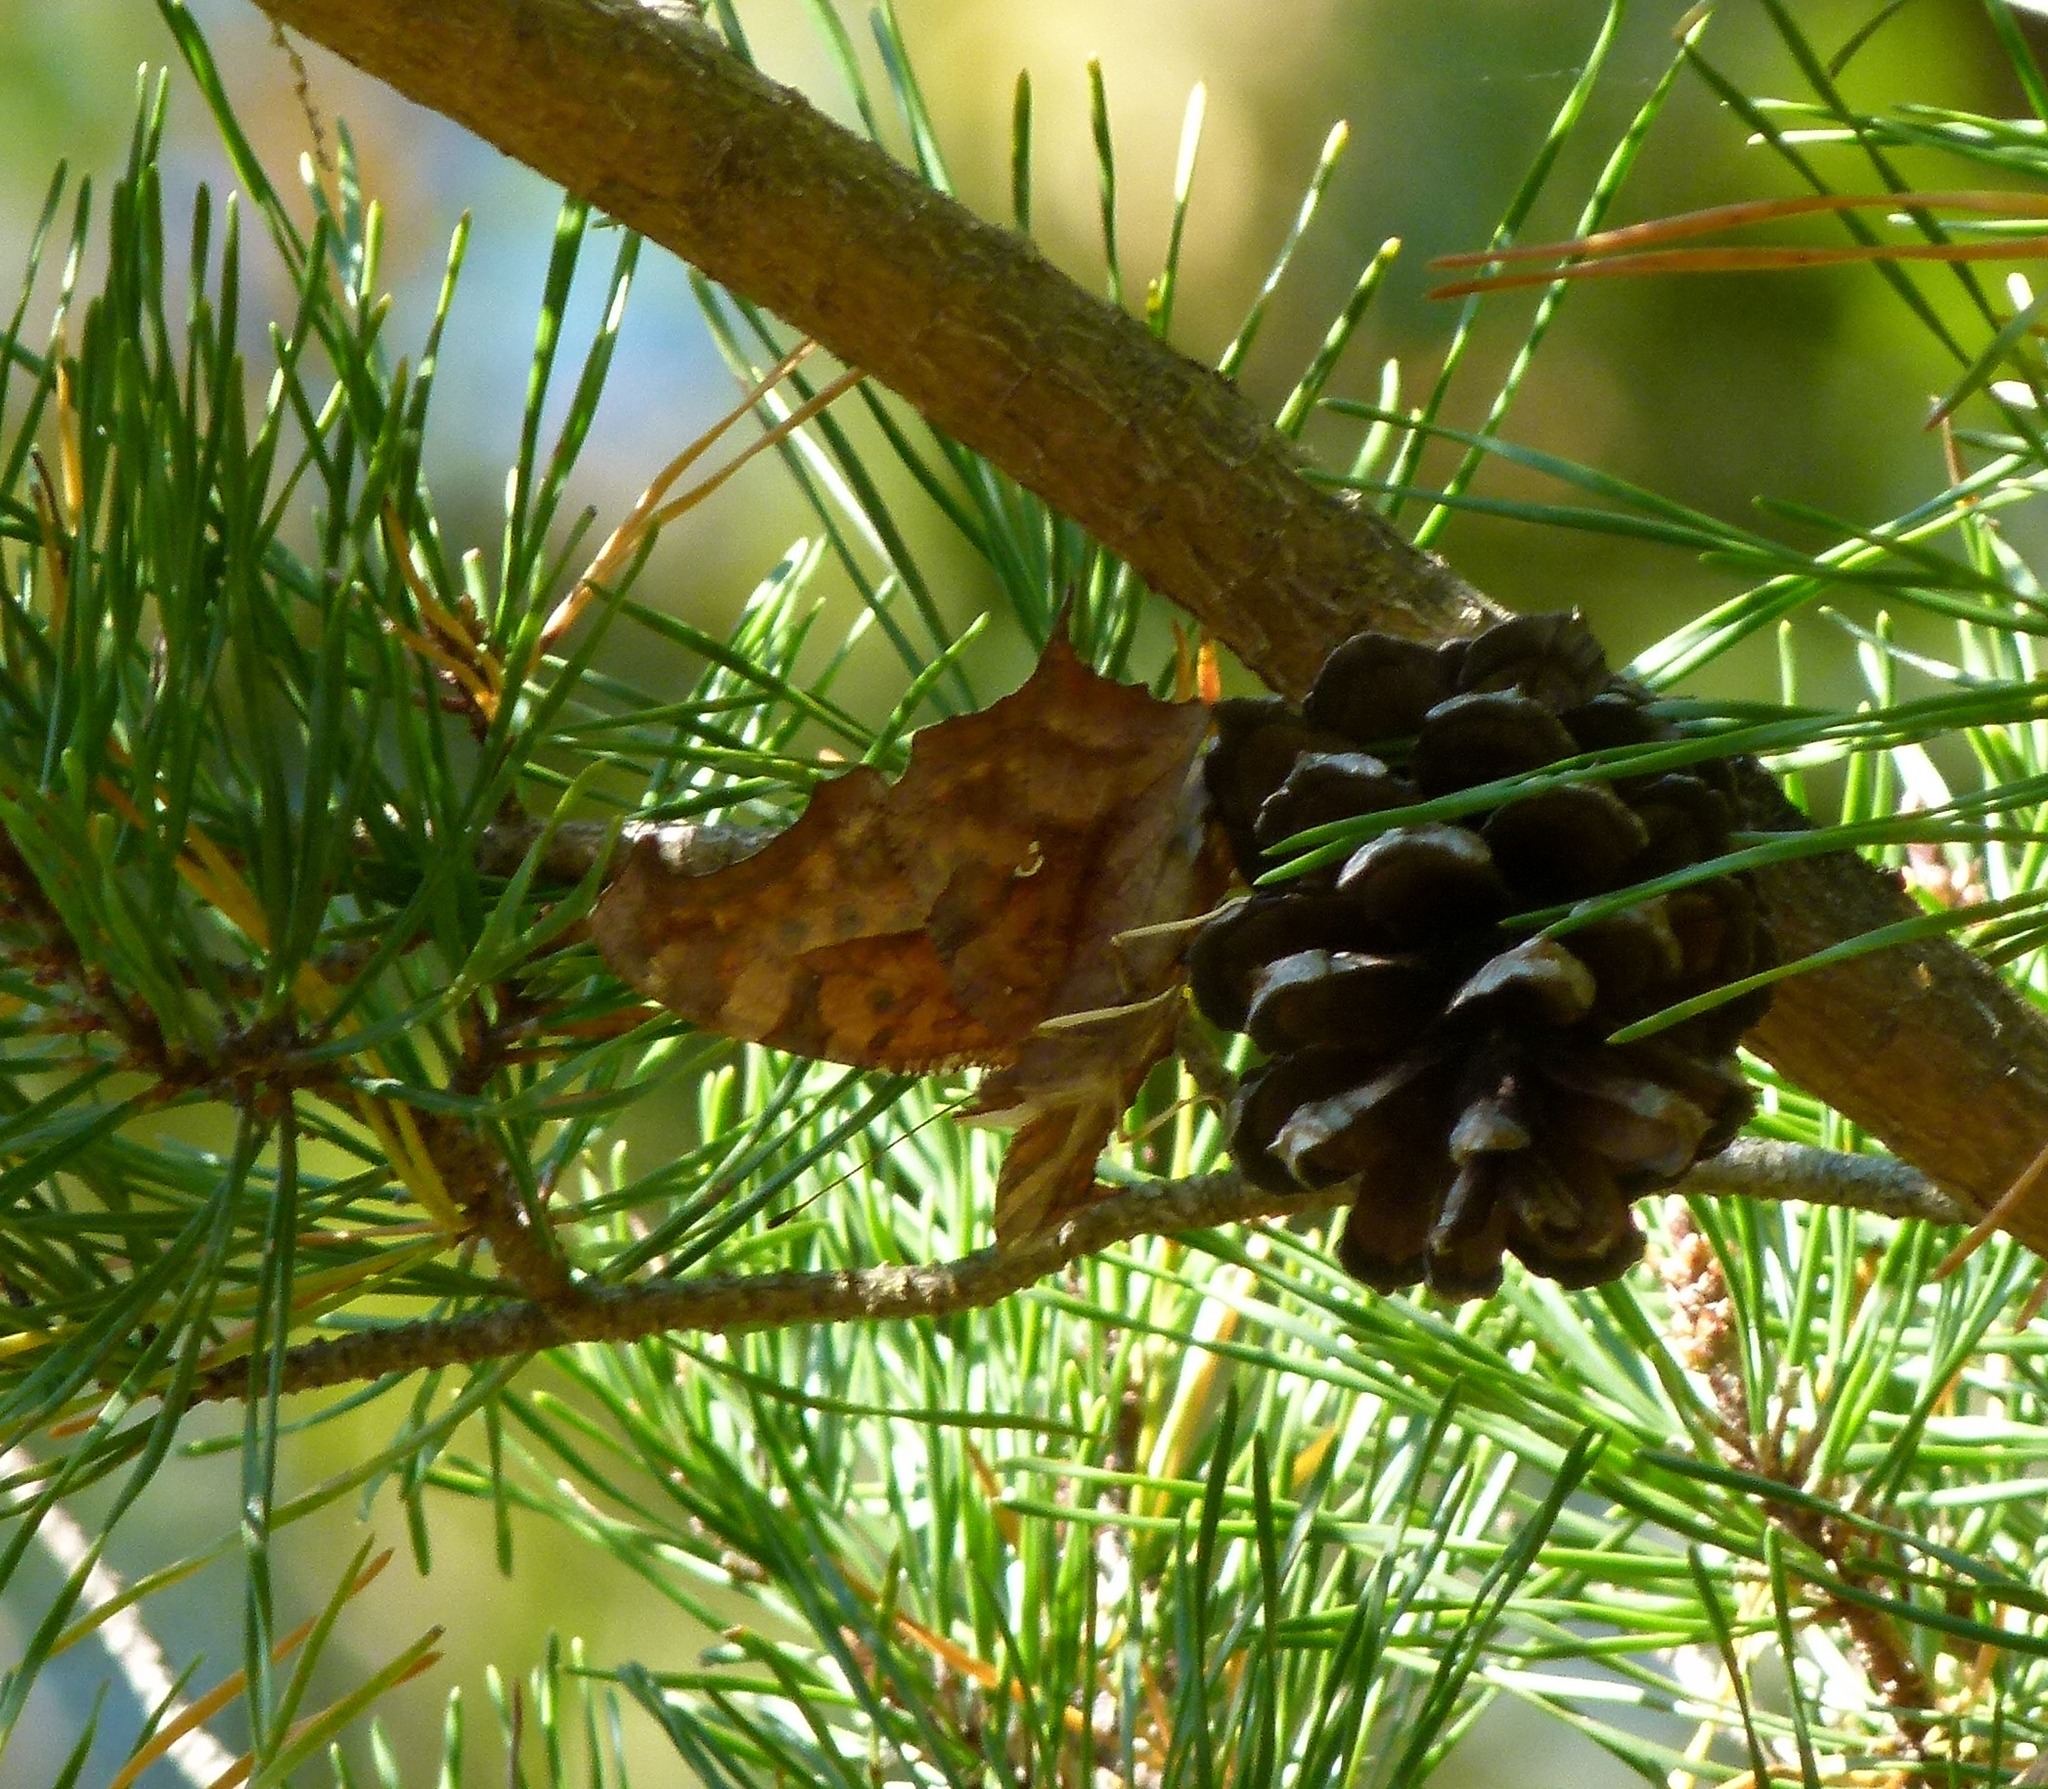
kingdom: Animalia
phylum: Arthropoda
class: Insecta
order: Lepidoptera
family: Nymphalidae
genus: Polygonia
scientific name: Polygonia interrogationis
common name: Question mark
